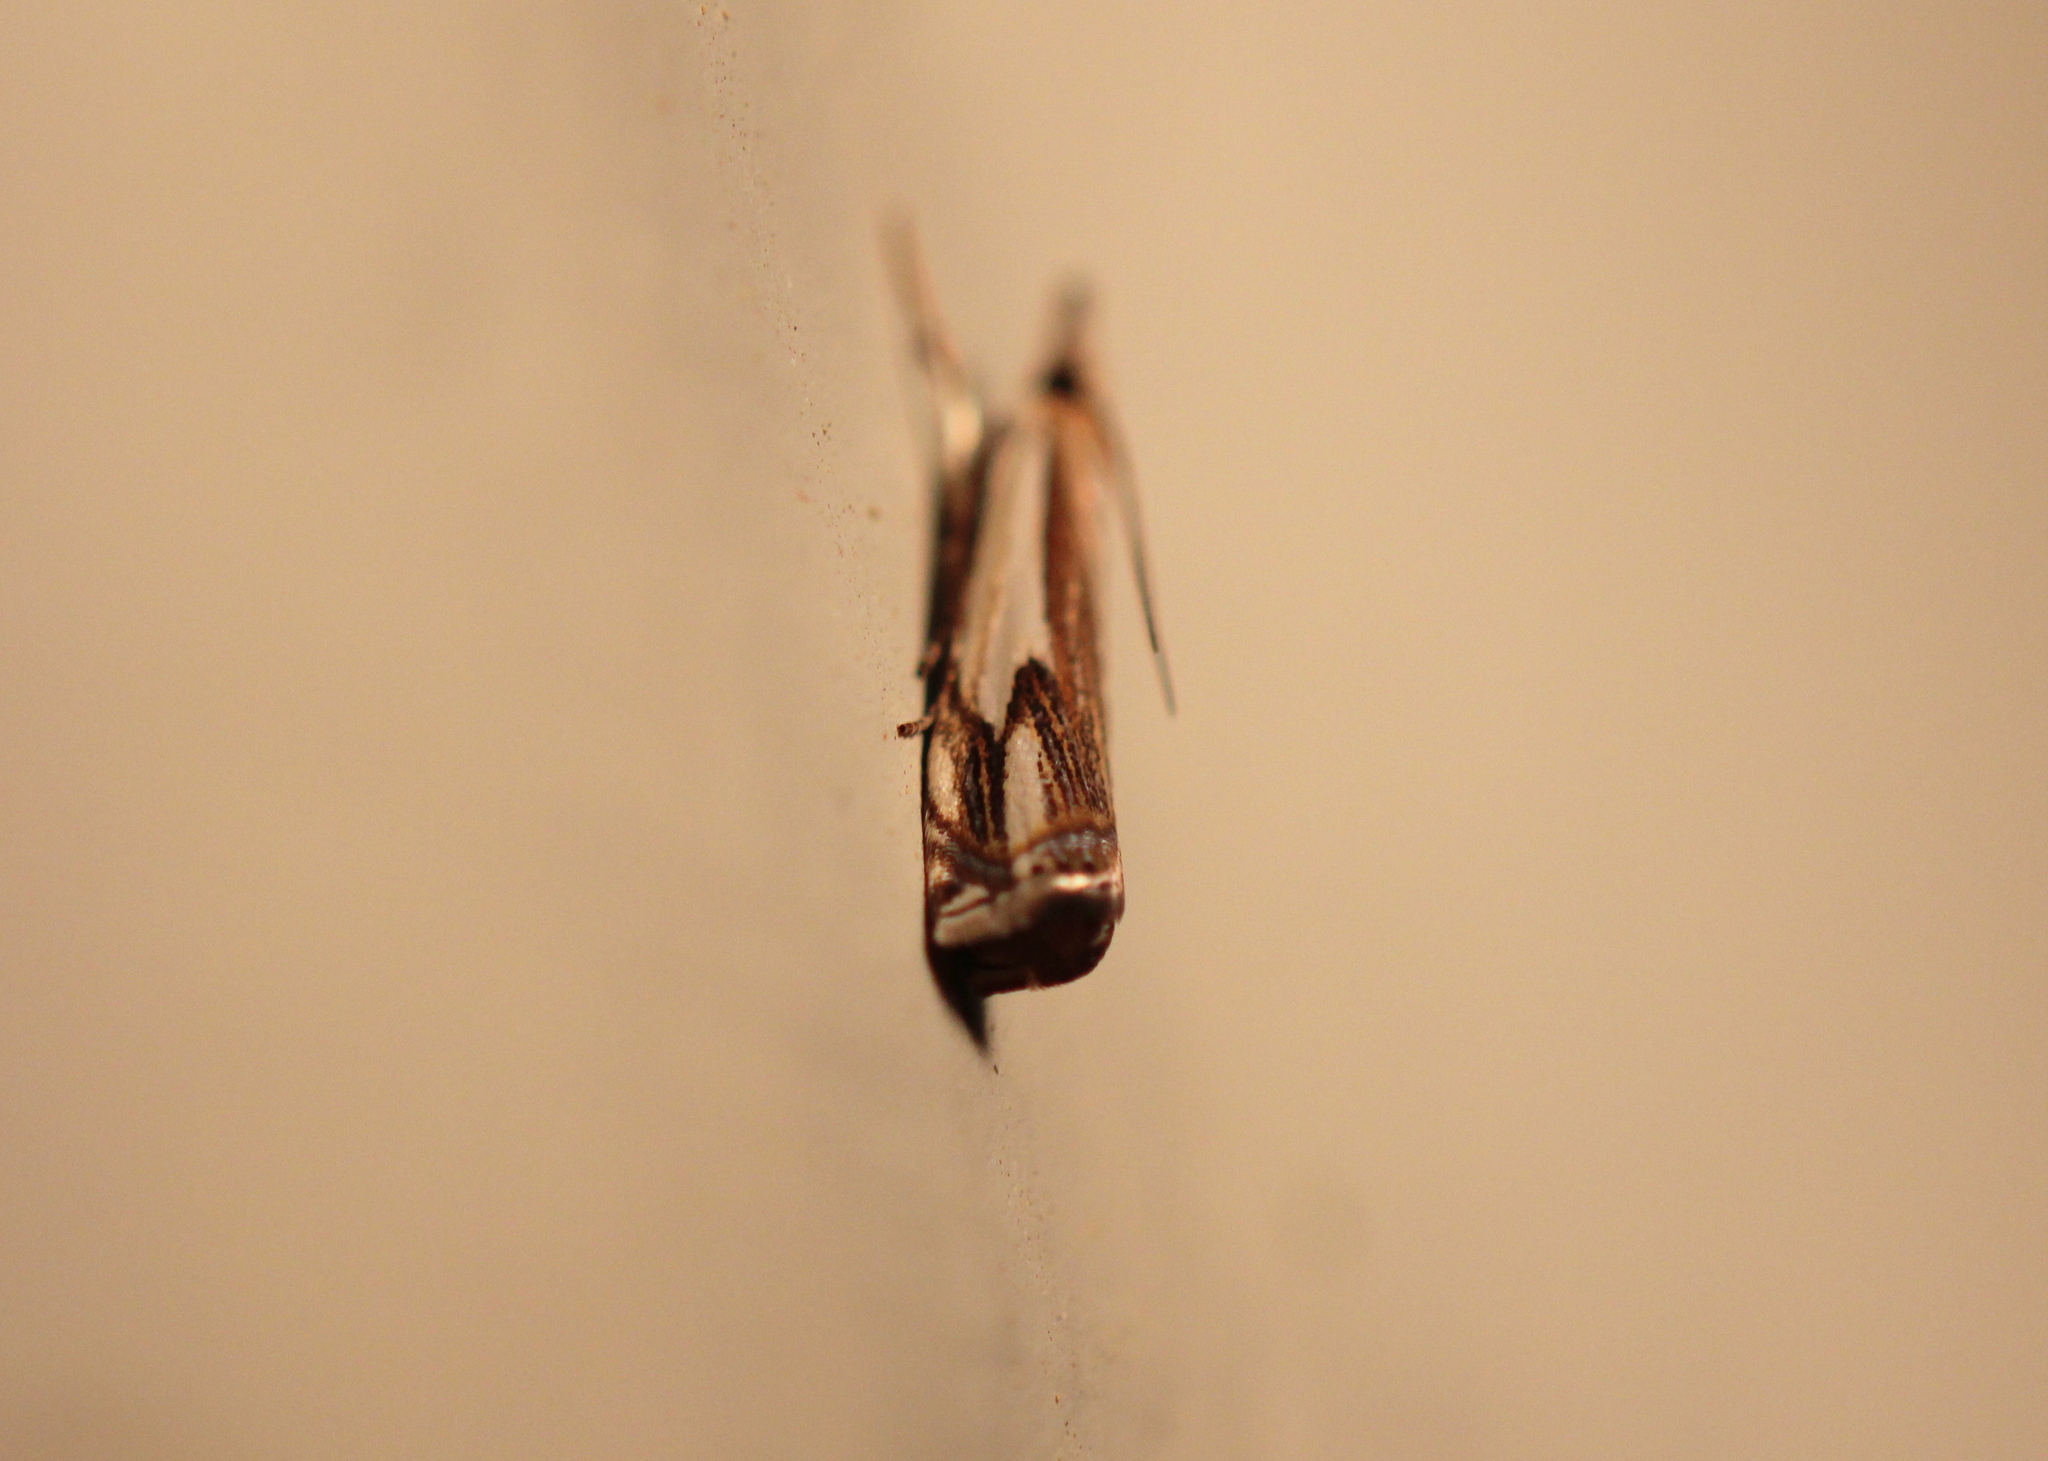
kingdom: Animalia
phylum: Arthropoda
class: Insecta
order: Lepidoptera
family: Crambidae
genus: Crambus
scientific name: Crambus agitatellus
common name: Double-banded grass-veneer
